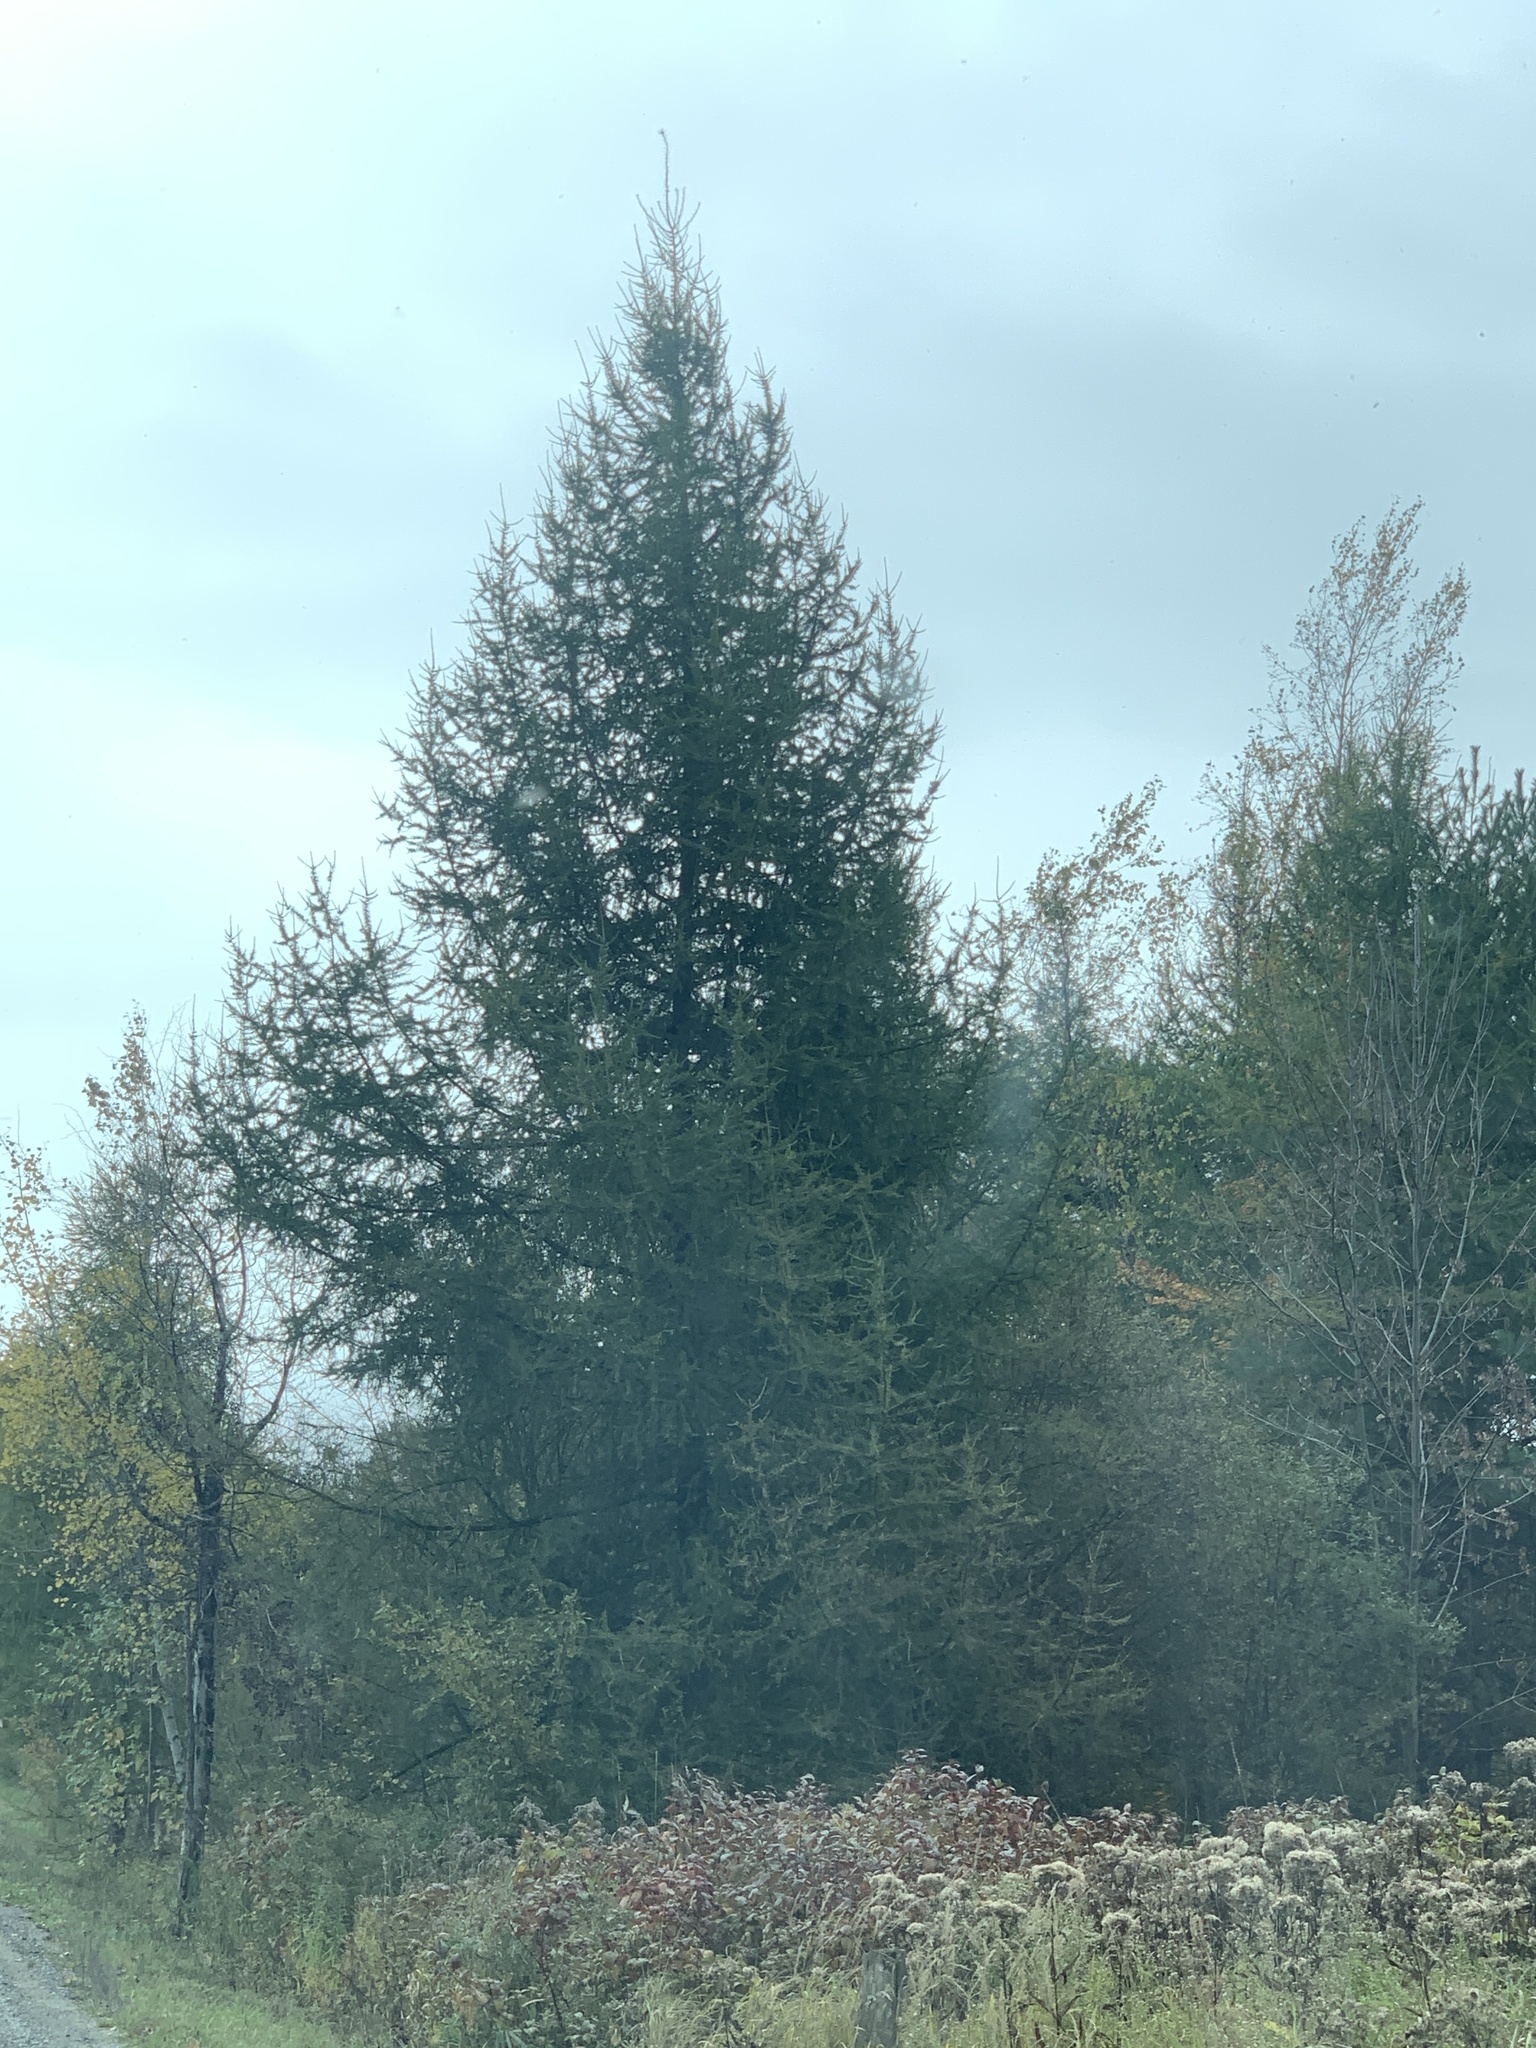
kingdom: Plantae
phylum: Tracheophyta
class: Pinopsida
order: Pinales
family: Pinaceae
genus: Larix
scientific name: Larix laricina
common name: American larch
